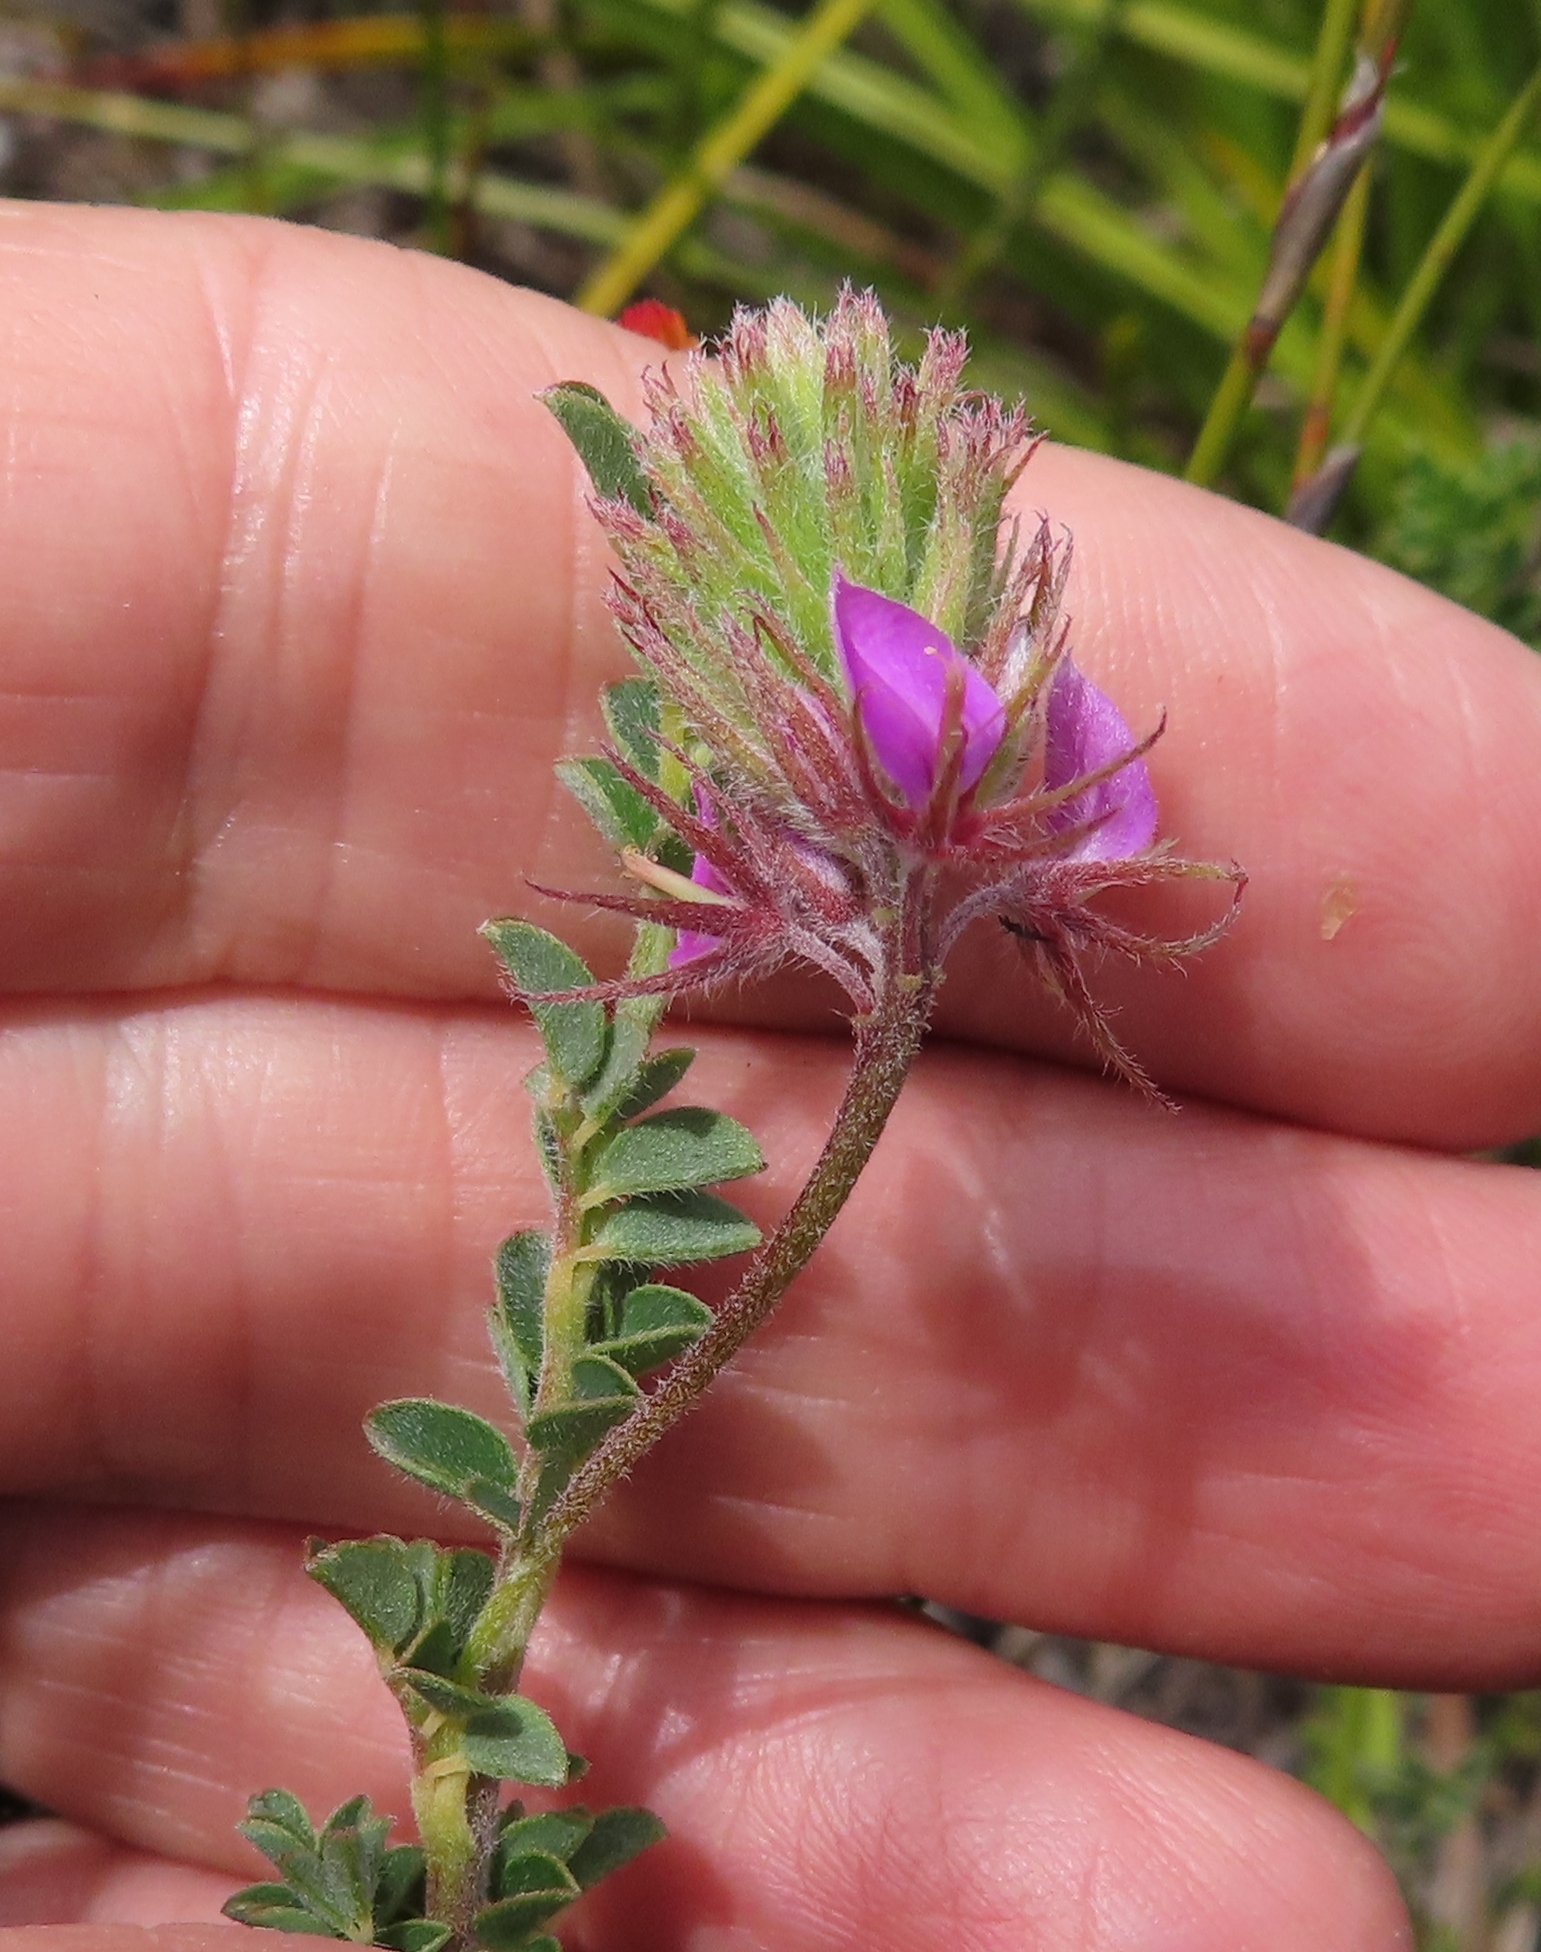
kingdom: Plantae
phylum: Tracheophyta
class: Magnoliopsida
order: Fabales
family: Fabaceae
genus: Indigofera
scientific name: Indigofera alopecuroides
